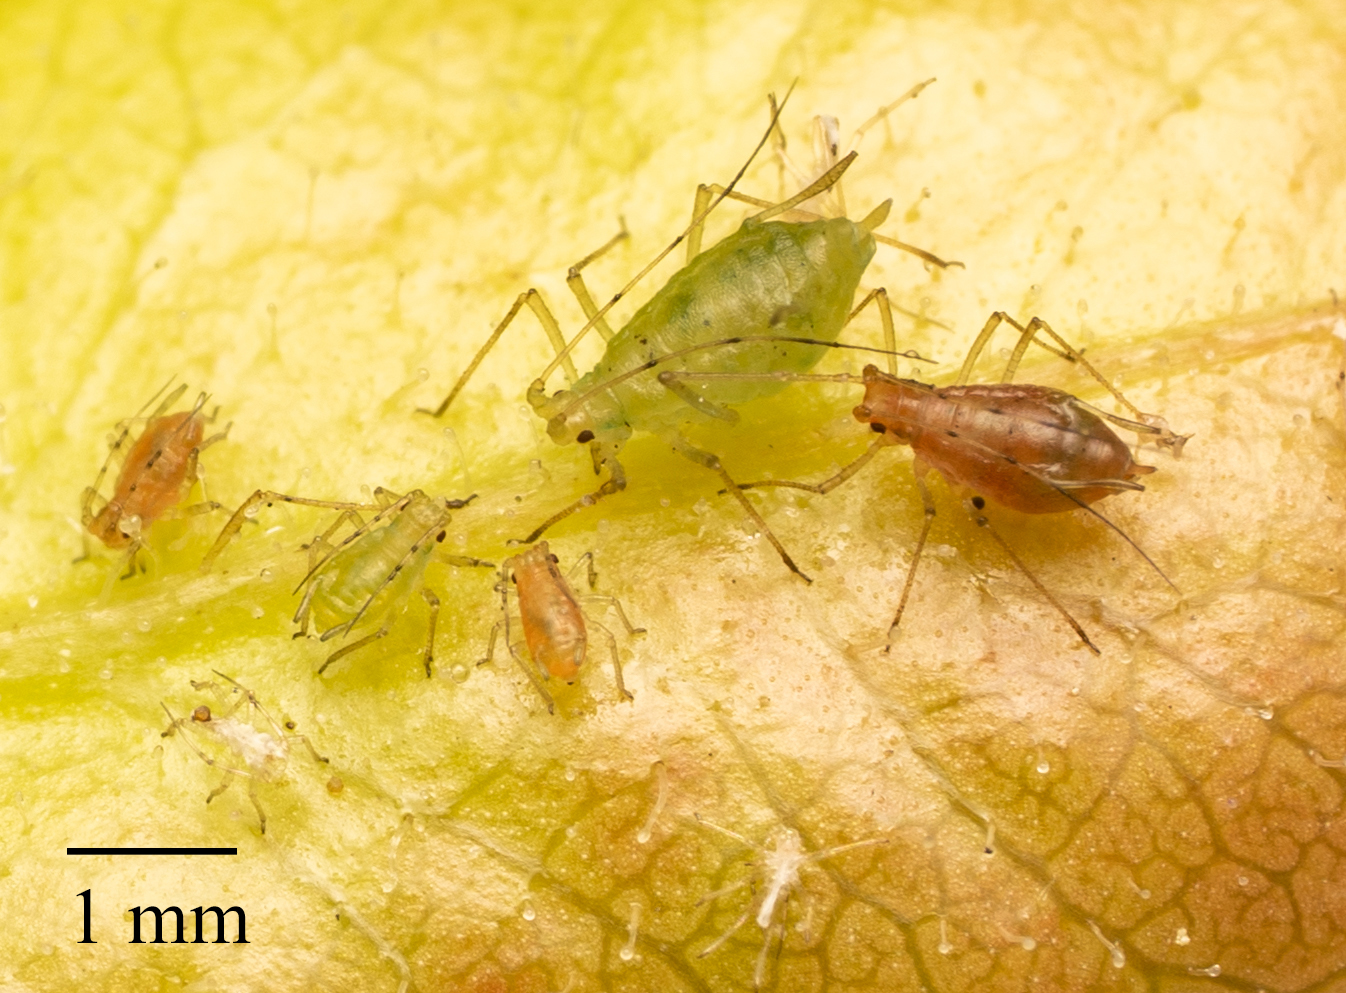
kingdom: Animalia
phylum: Arthropoda
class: Insecta
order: Hemiptera
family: Aphididae
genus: Wahlgreniella
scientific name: Wahlgreniella nervata
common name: Pale green aphid
